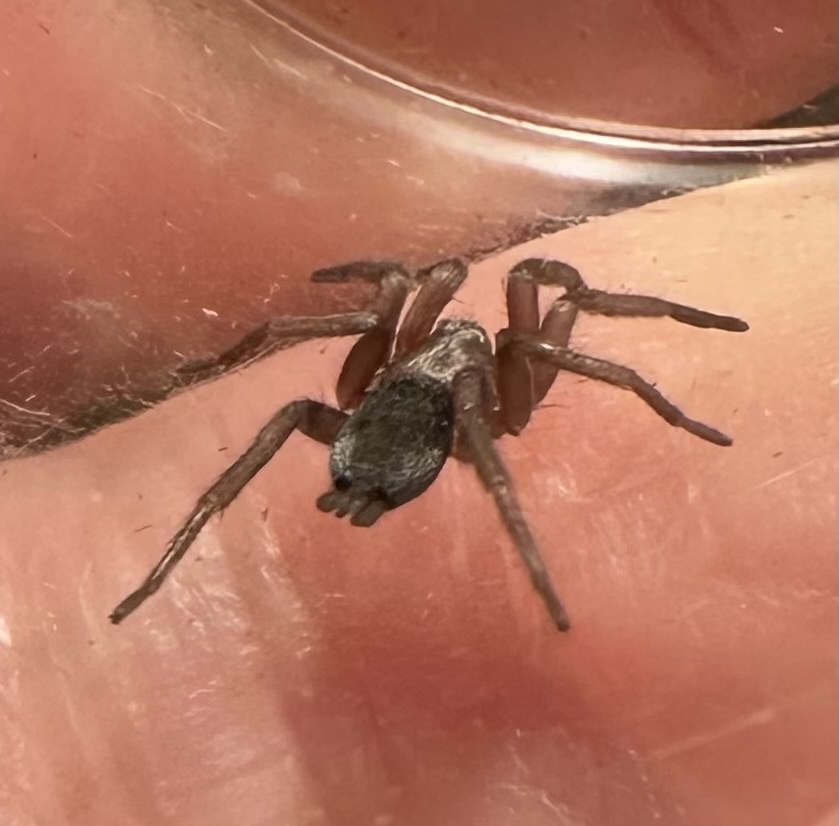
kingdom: Animalia
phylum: Arthropoda
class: Arachnida
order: Araneae
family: Gnaphosidae
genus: Scotophaeus
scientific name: Scotophaeus blackwalli
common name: Mouse spider
